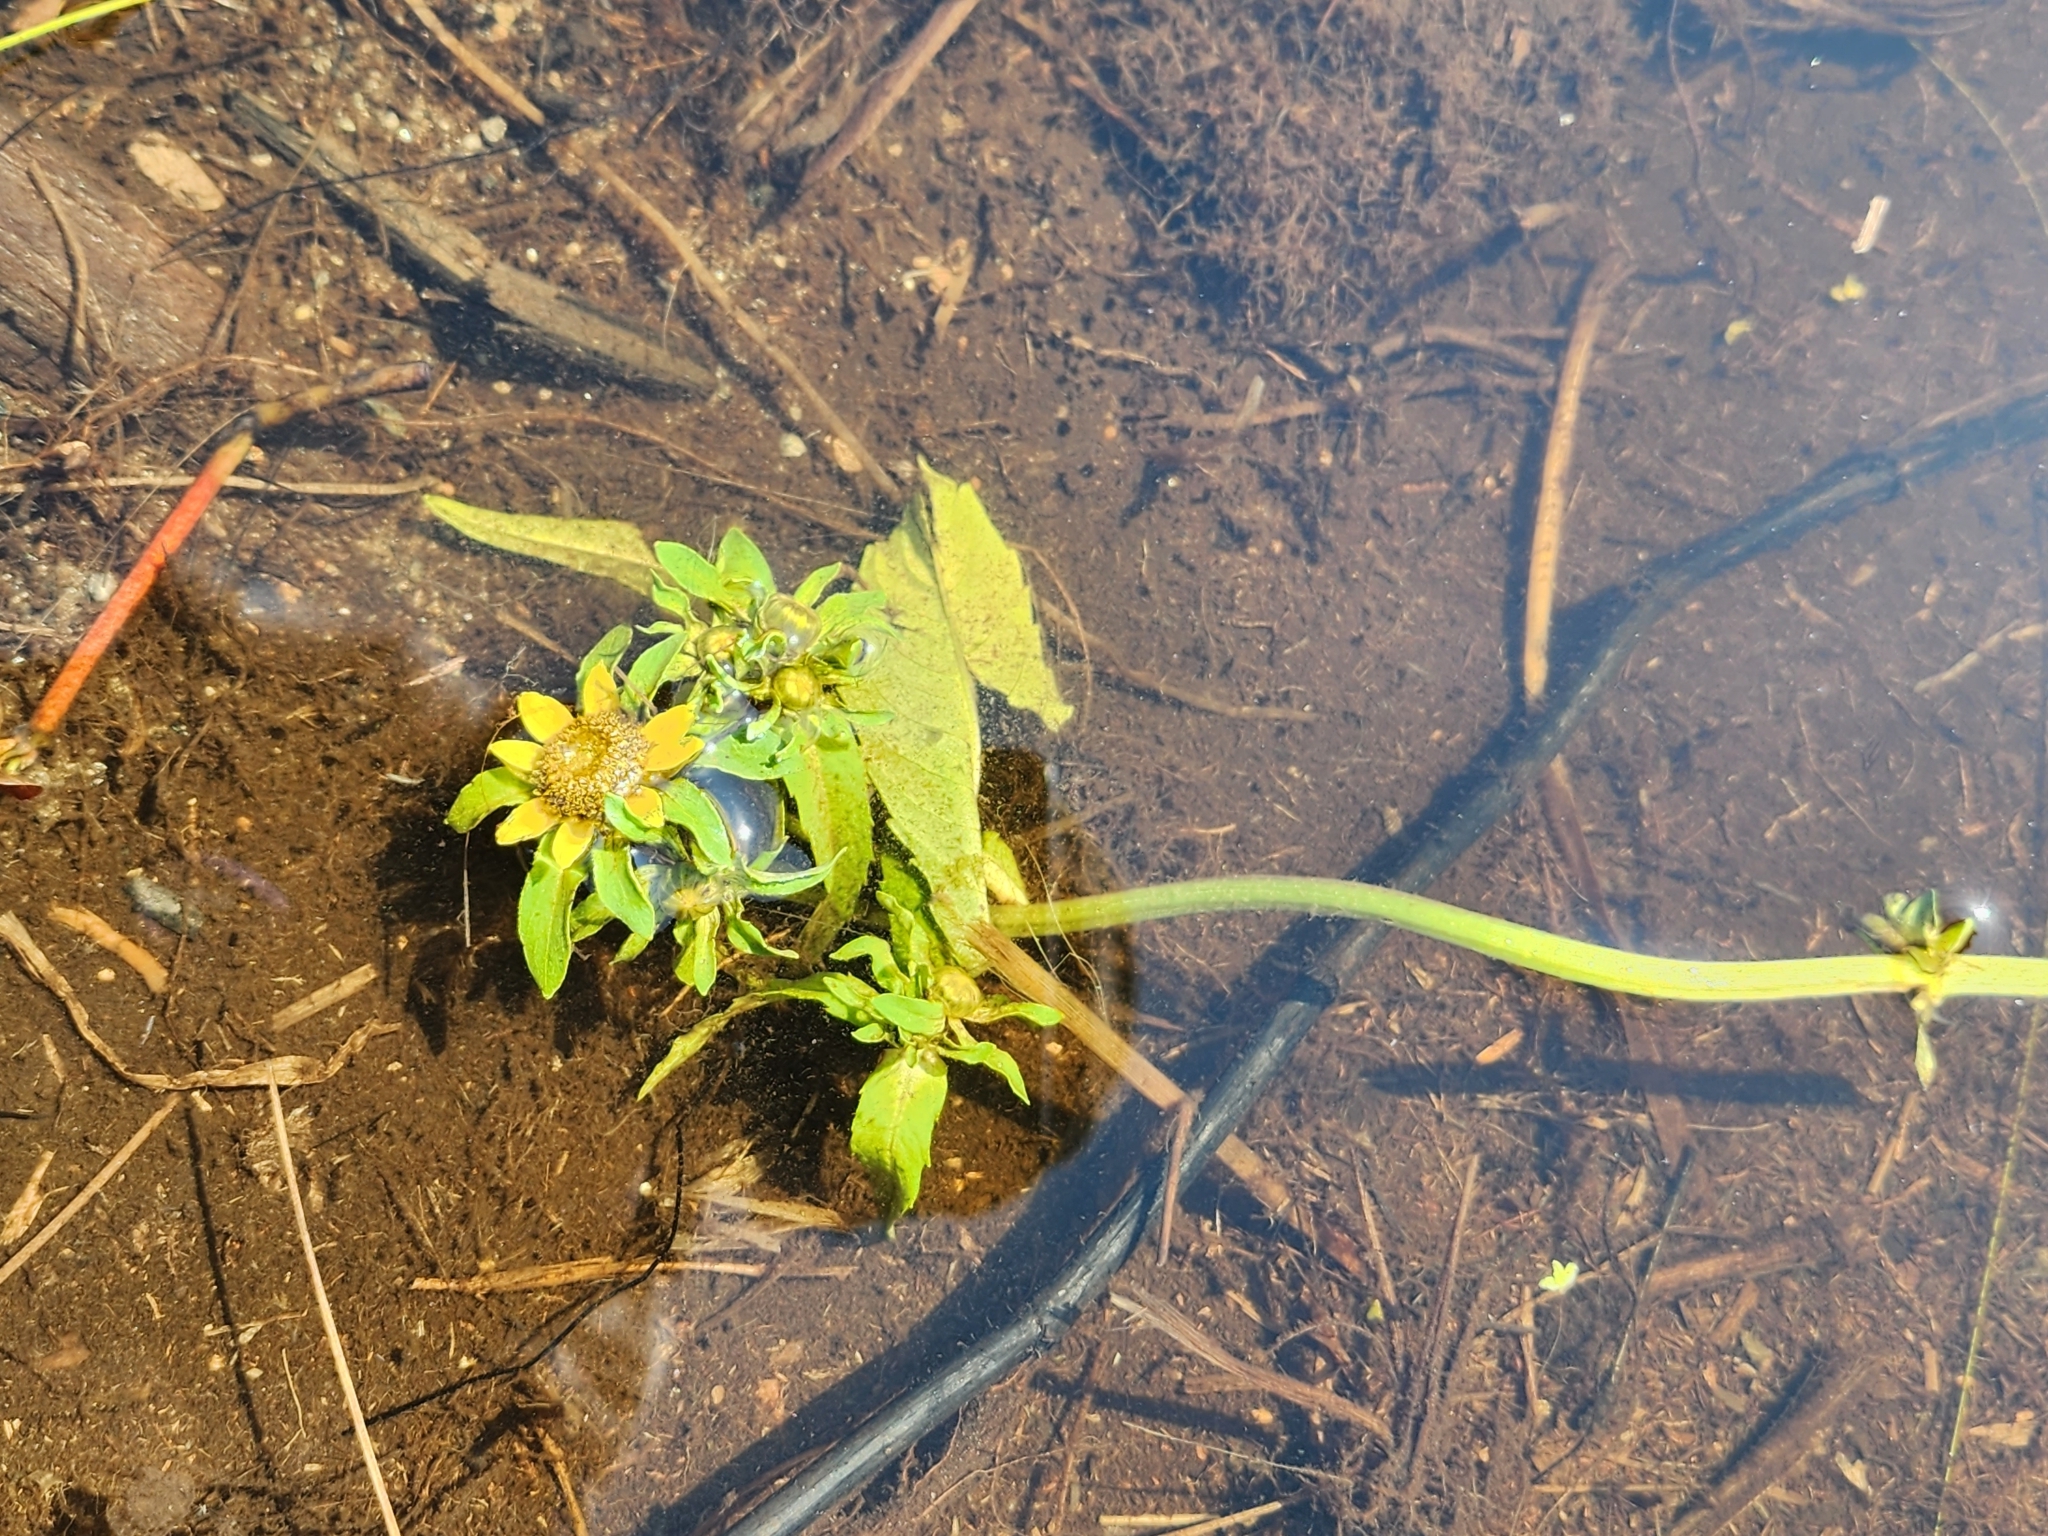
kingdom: Plantae
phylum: Tracheophyta
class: Magnoliopsida
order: Asterales
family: Asteraceae
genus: Bidens
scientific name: Bidens beckii
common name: Beck's beggarticks
